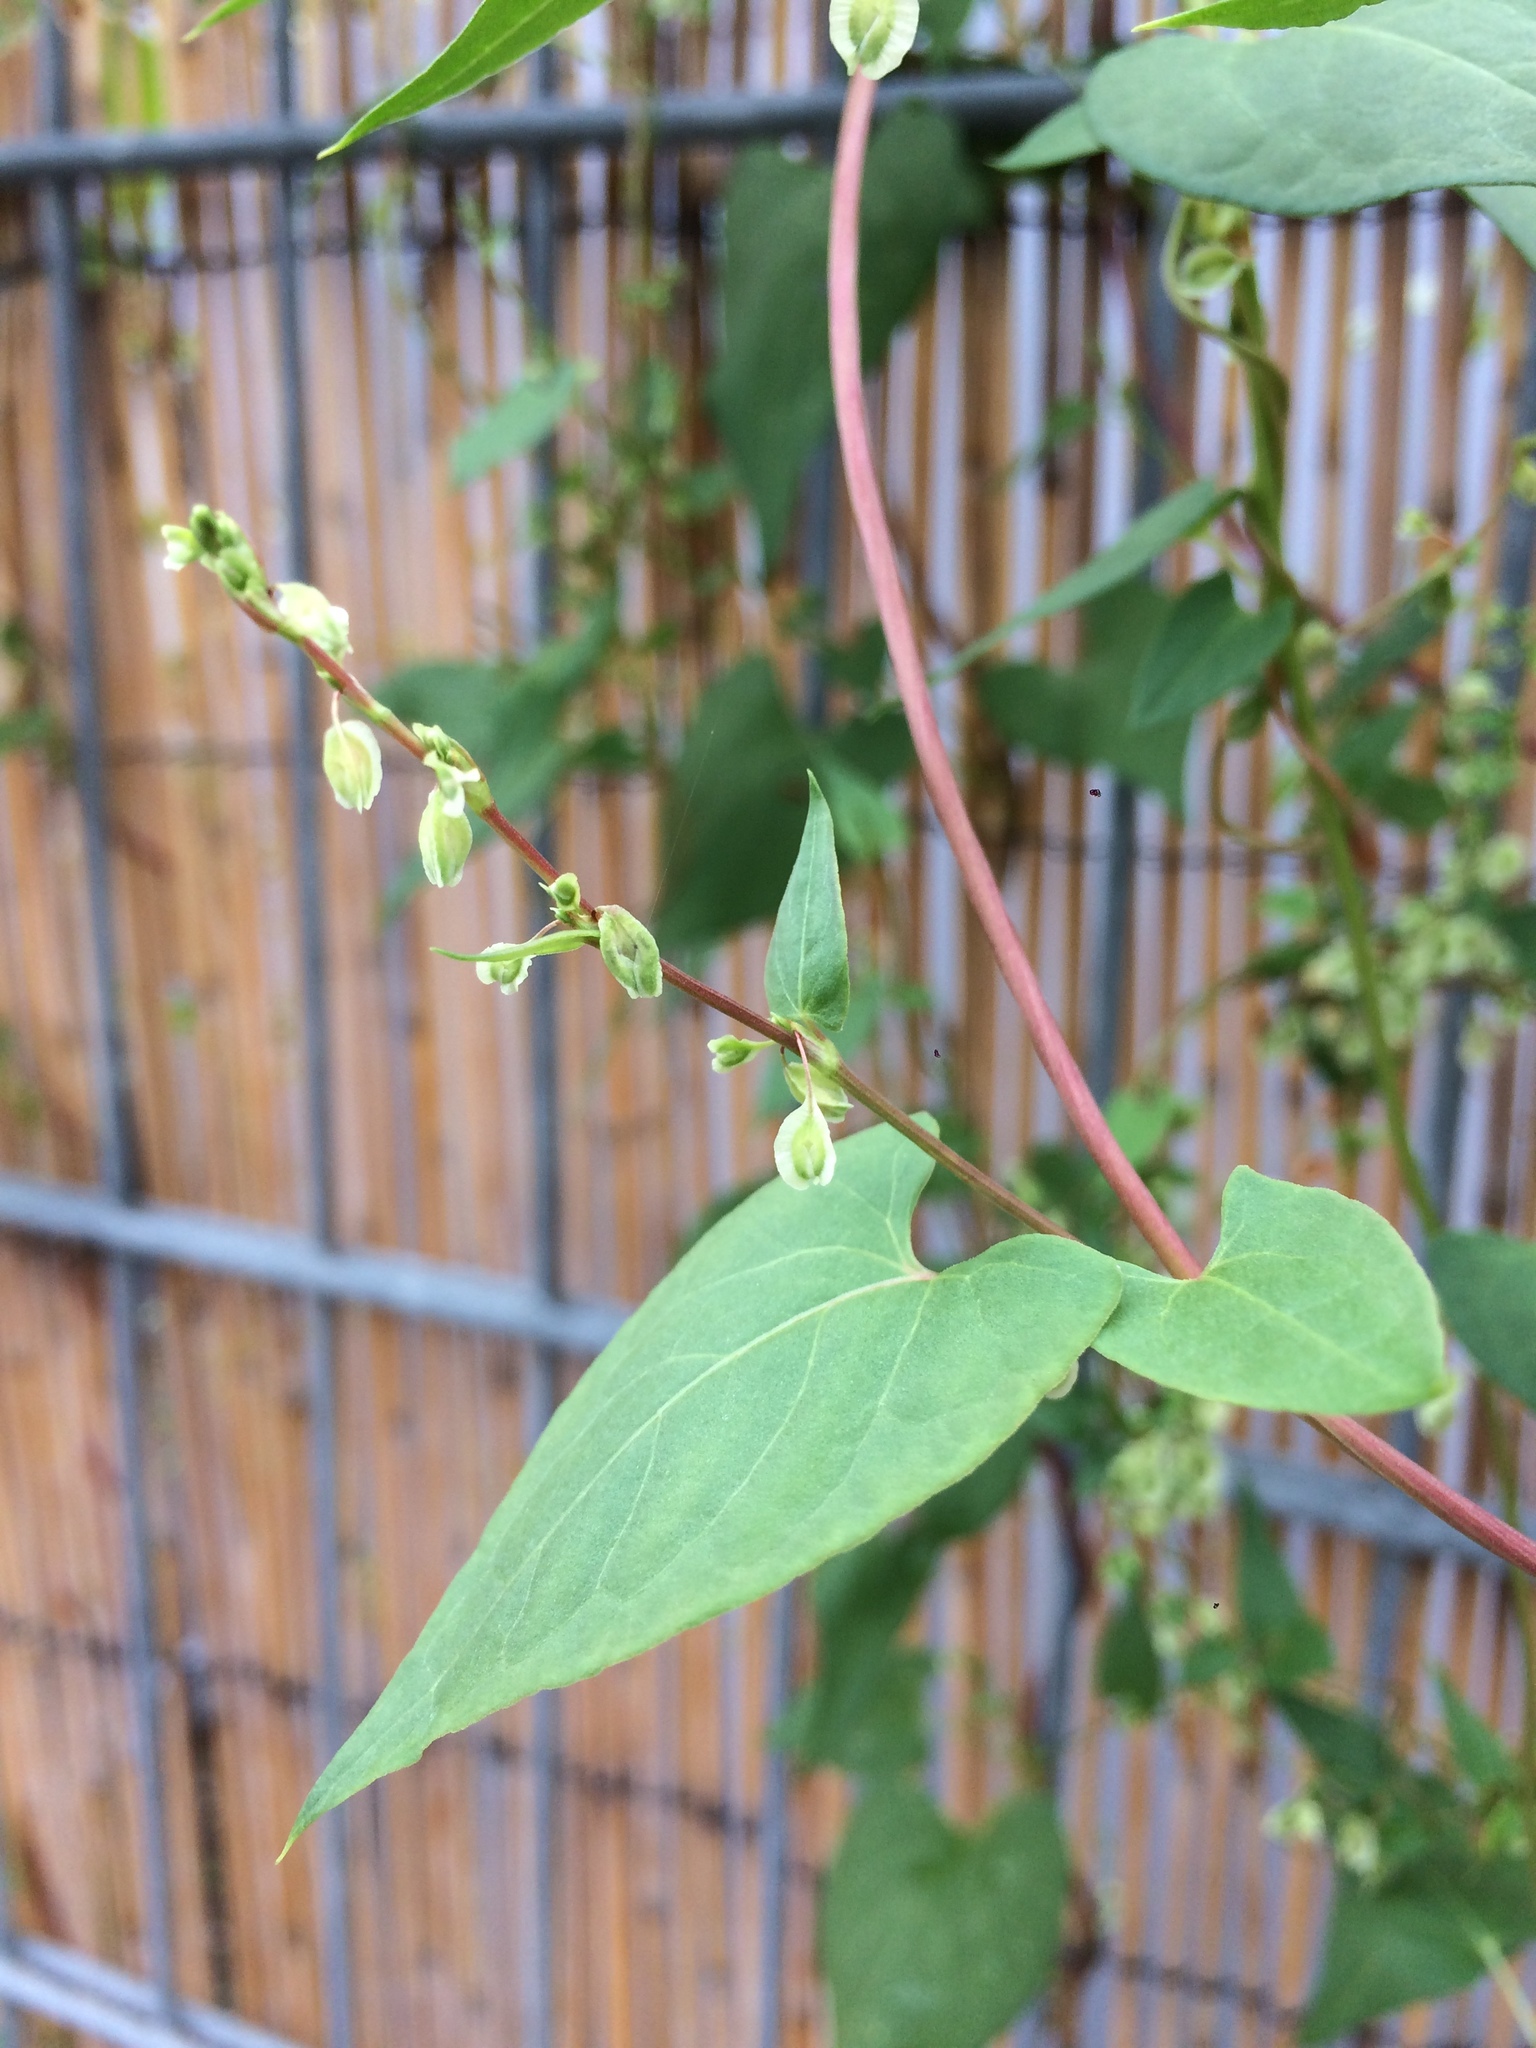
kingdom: Plantae
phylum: Tracheophyta
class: Magnoliopsida
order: Caryophyllales
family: Polygonaceae
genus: Fallopia
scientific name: Fallopia dumetorum
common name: Copse-bindweed
